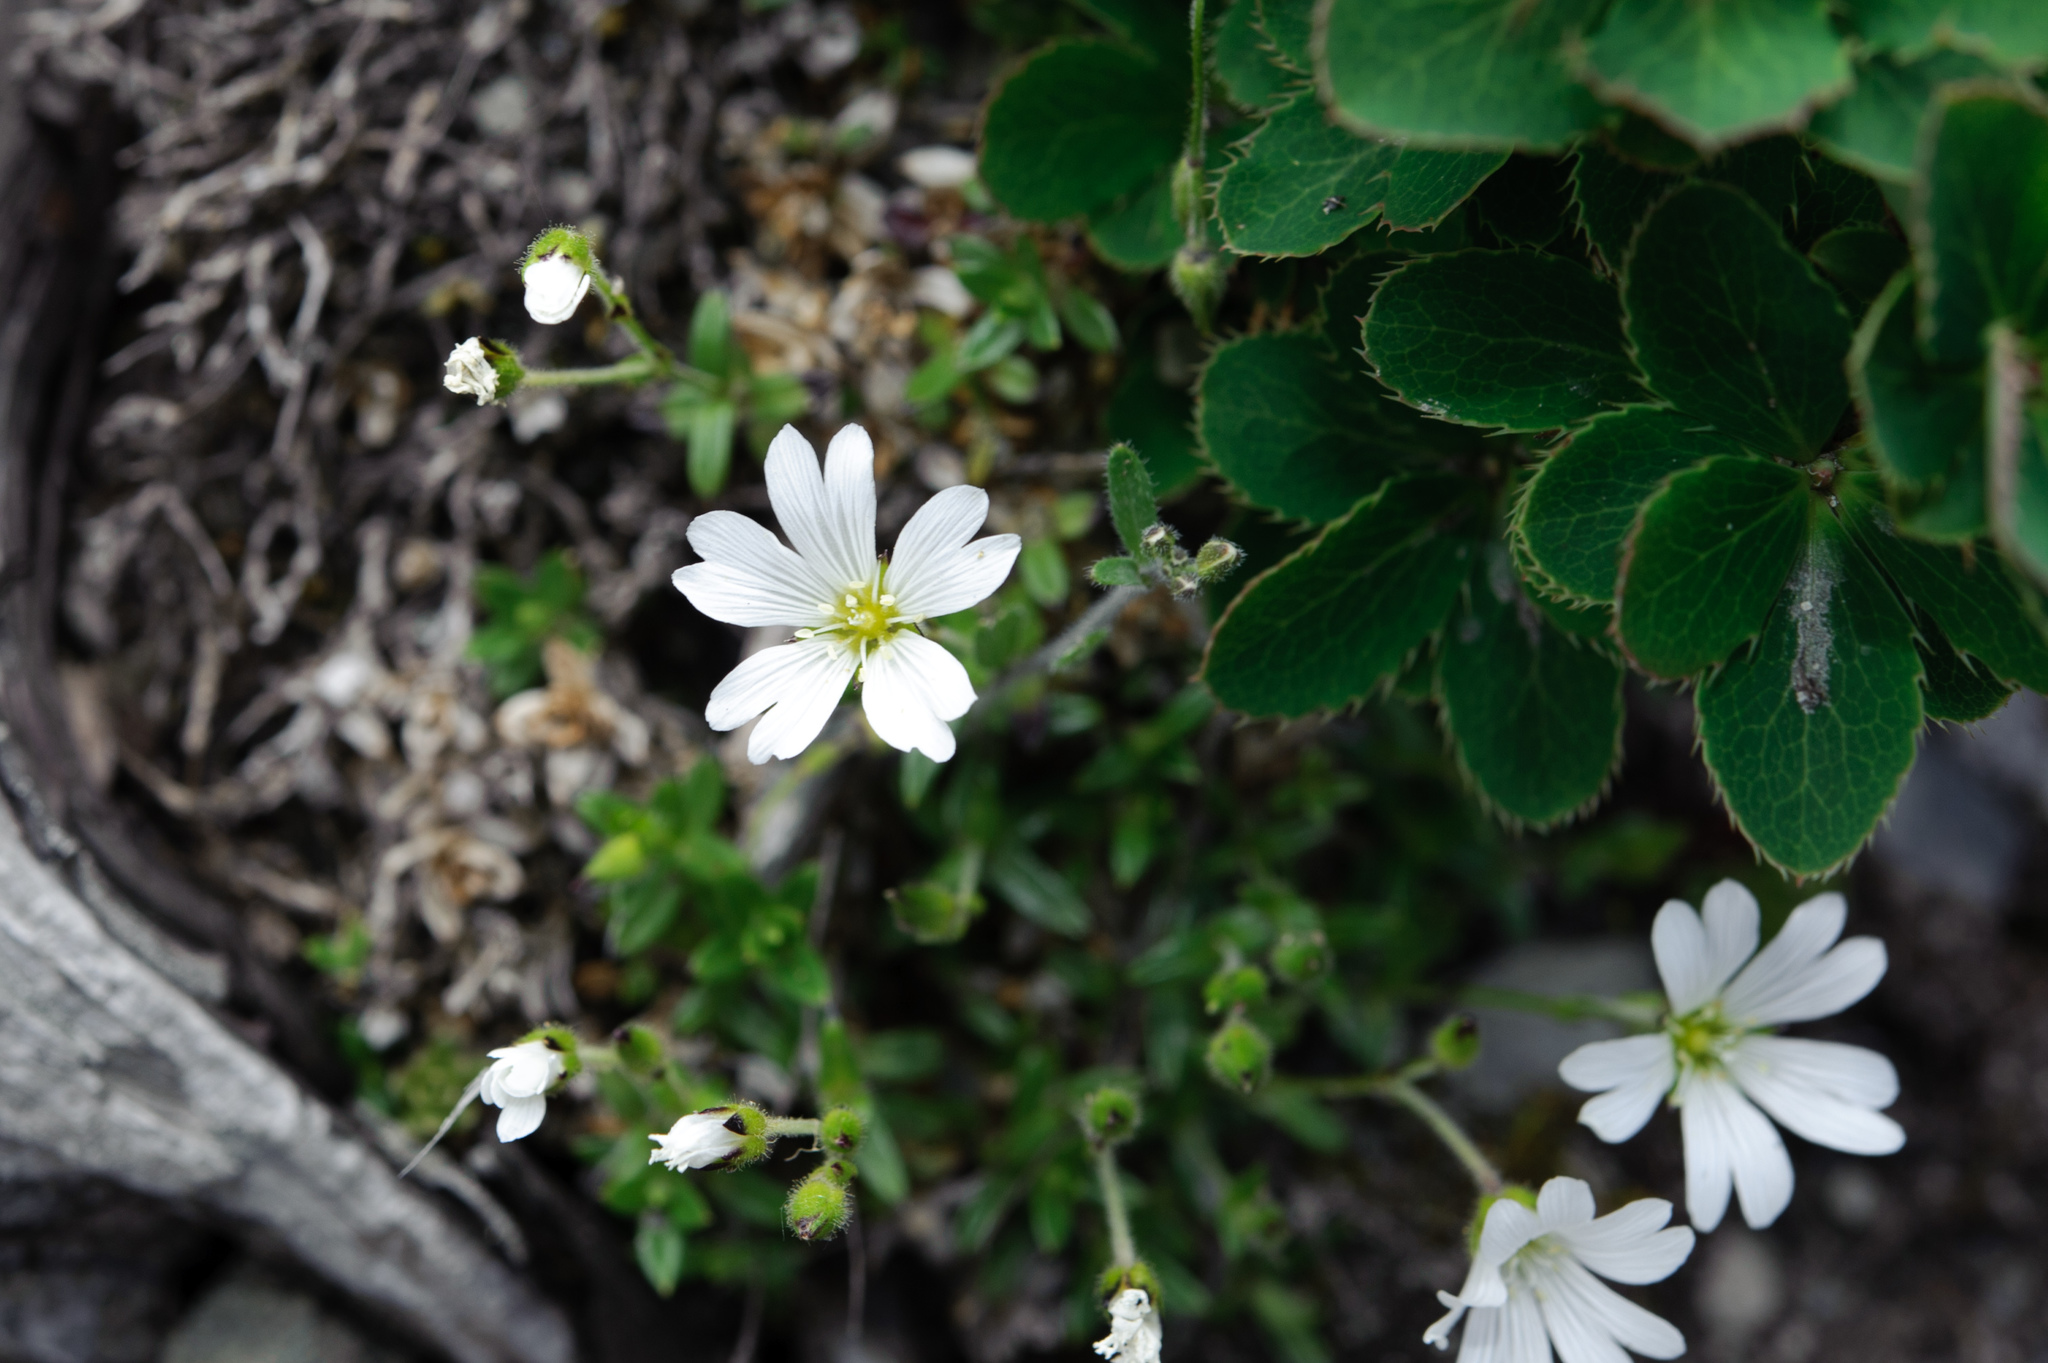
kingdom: Plantae
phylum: Tracheophyta
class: Magnoliopsida
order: Caryophyllales
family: Caryophyllaceae
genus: Cerastium
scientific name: Cerastium morrisonense
